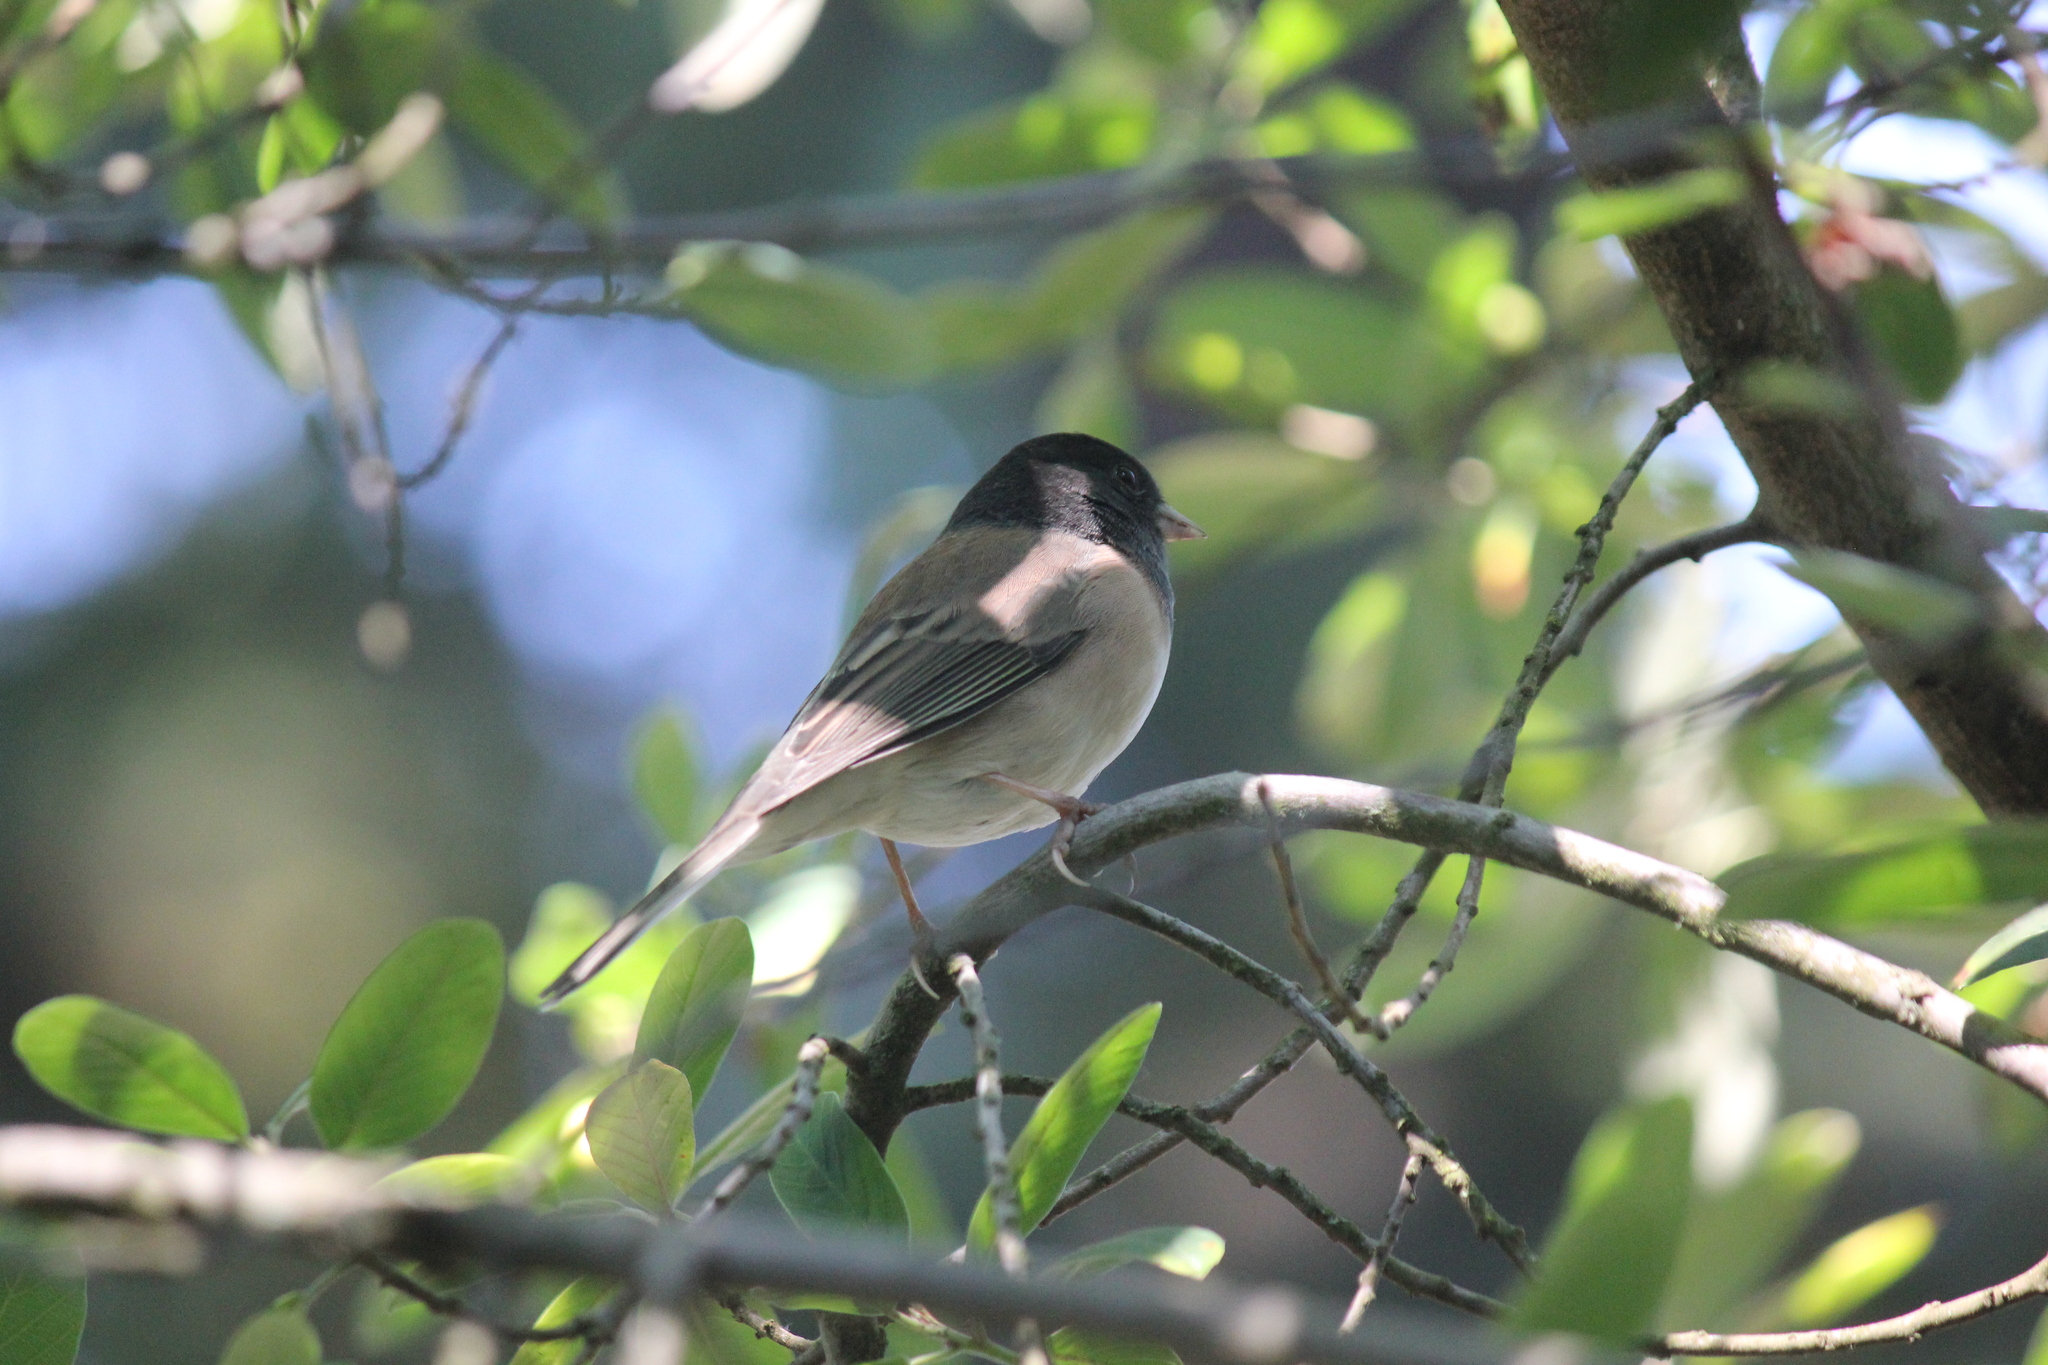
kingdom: Animalia
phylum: Chordata
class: Aves
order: Passeriformes
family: Passerellidae
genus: Junco
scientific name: Junco hyemalis
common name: Dark-eyed junco
